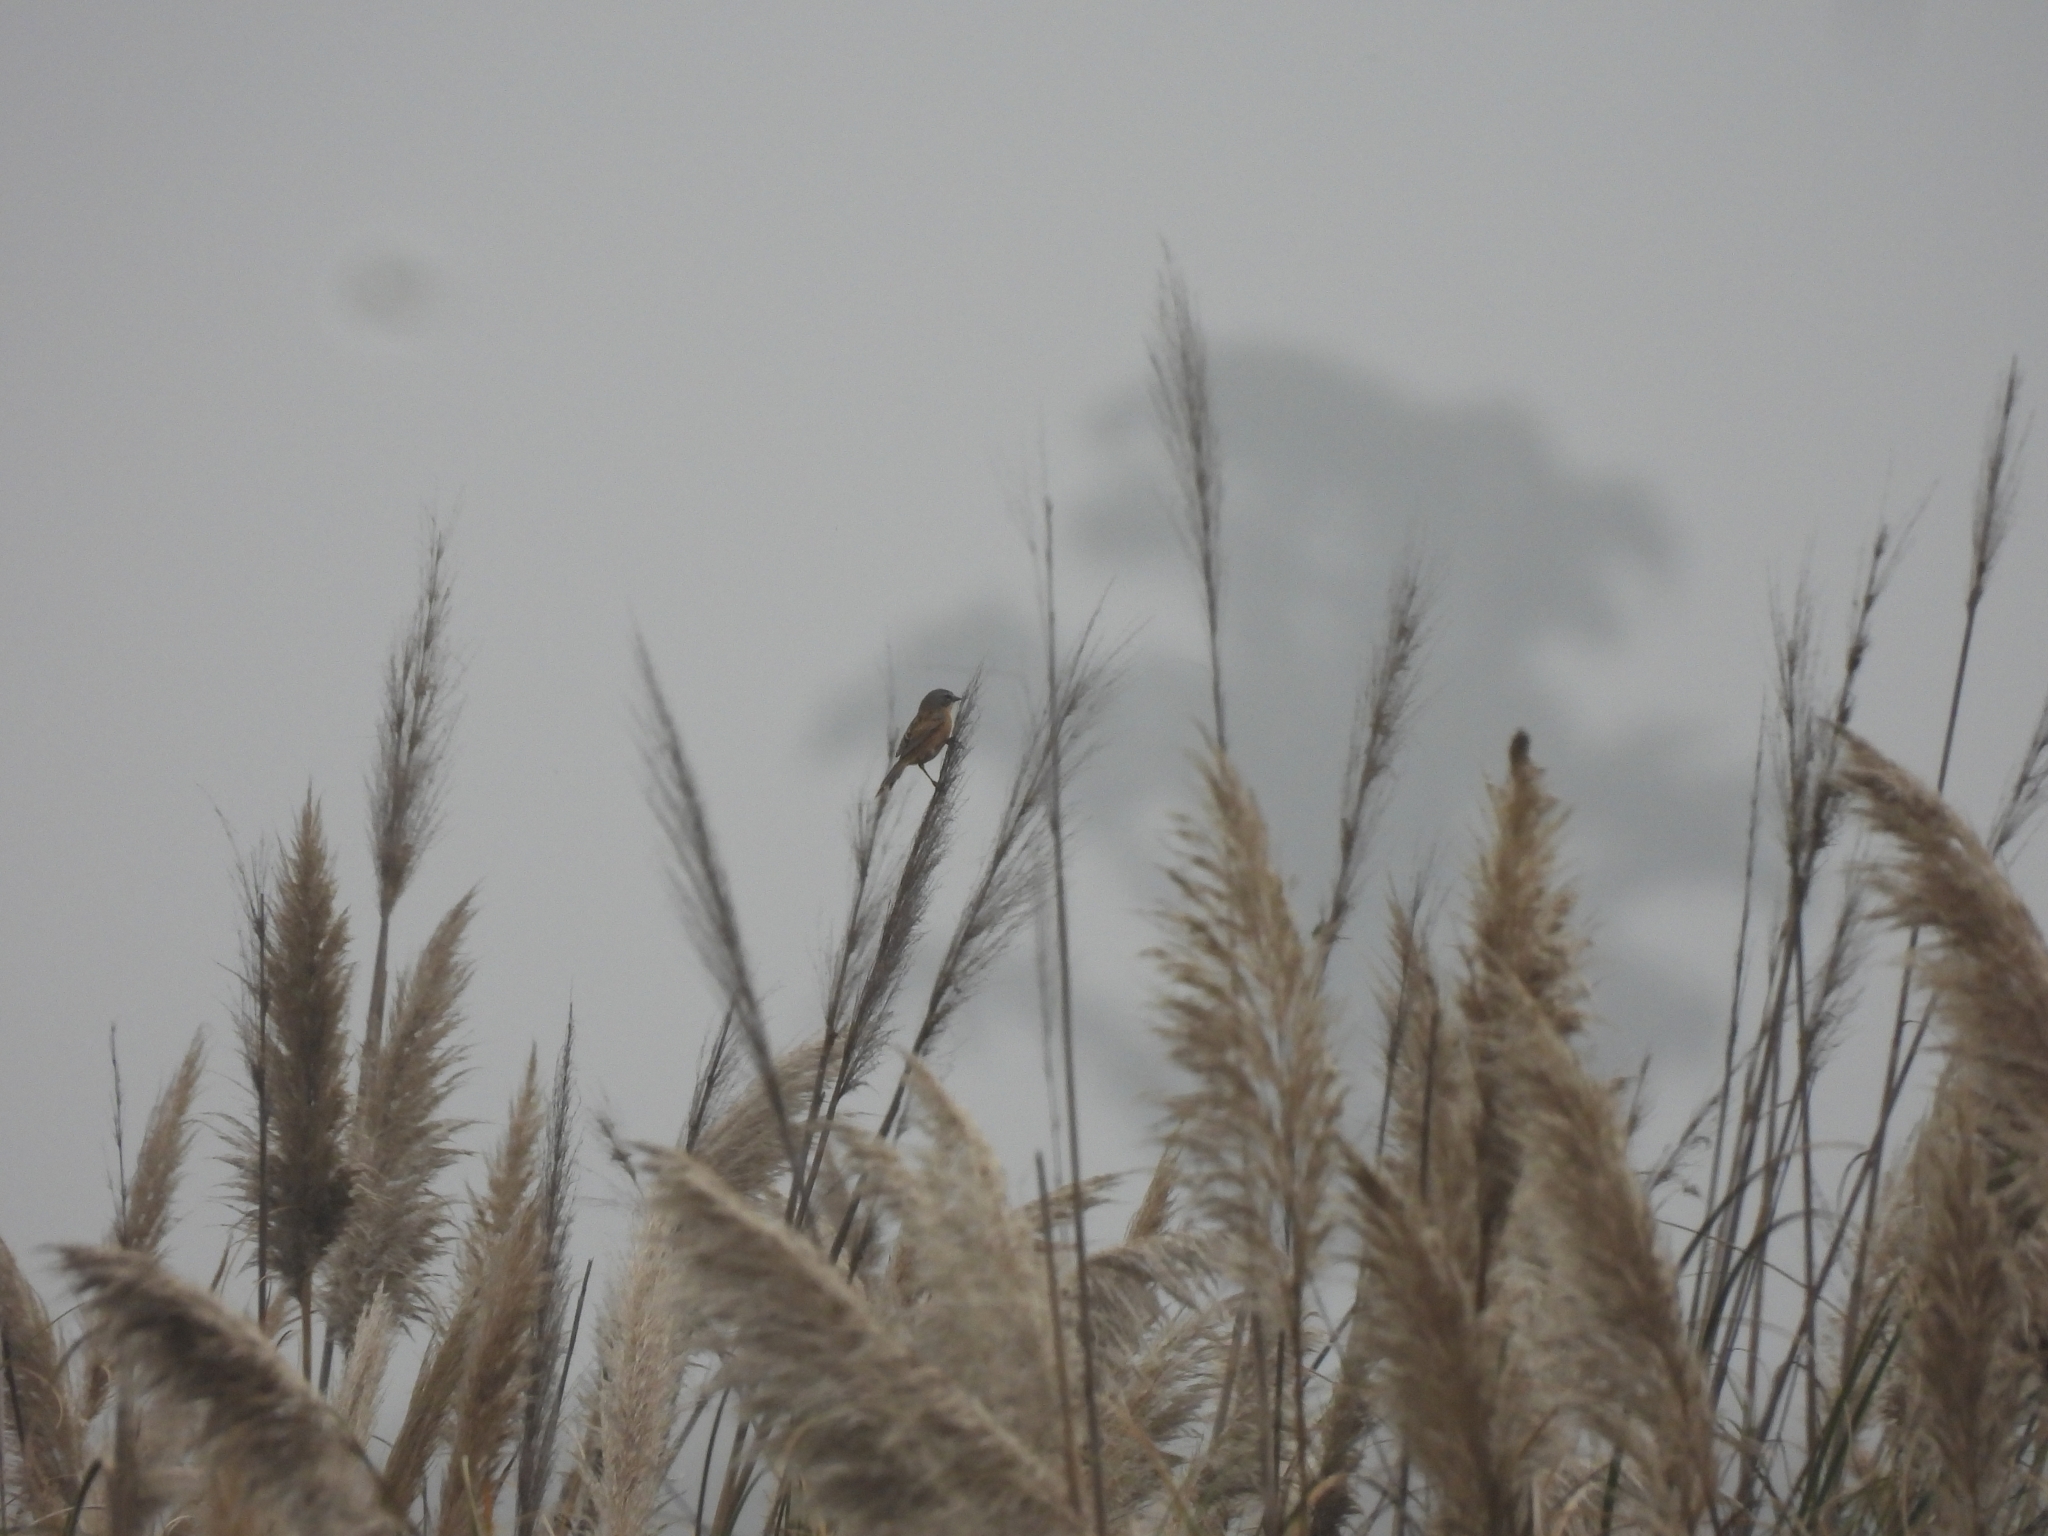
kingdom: Animalia
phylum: Chordata
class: Aves
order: Passeriformes
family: Thraupidae
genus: Donacospiza
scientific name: Donacospiza albifrons
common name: Long-tailed reed finch
